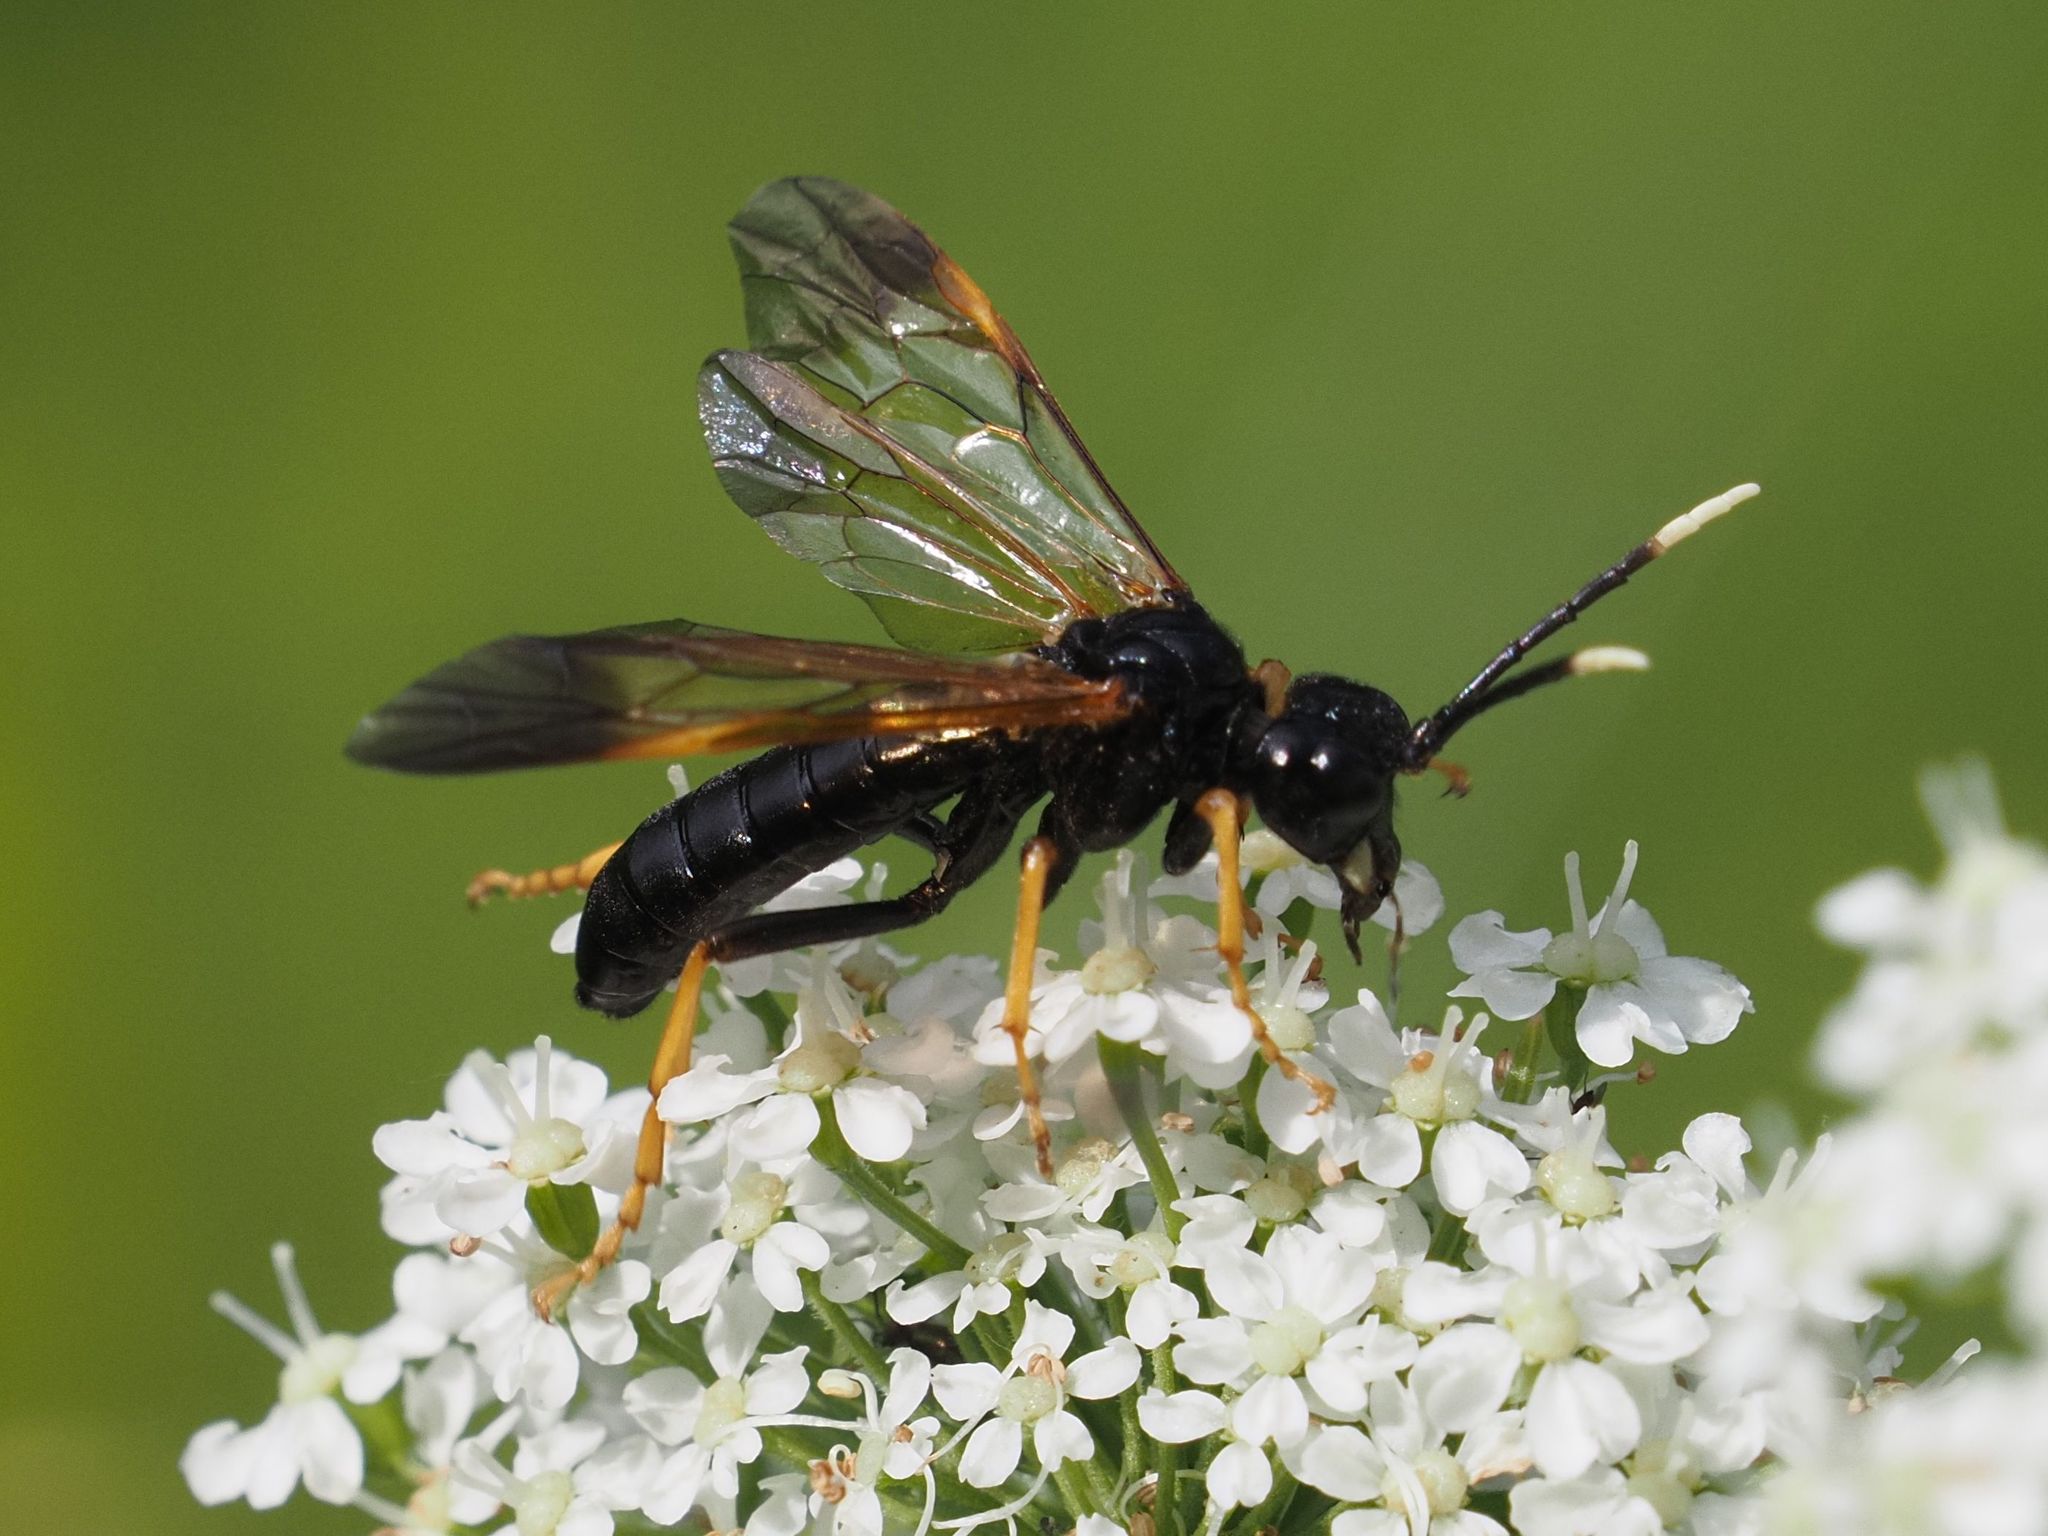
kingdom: Animalia
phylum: Arthropoda
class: Insecta
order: Hymenoptera
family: Tenthredinidae
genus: Tenthredo
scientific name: Tenthredo crassa
